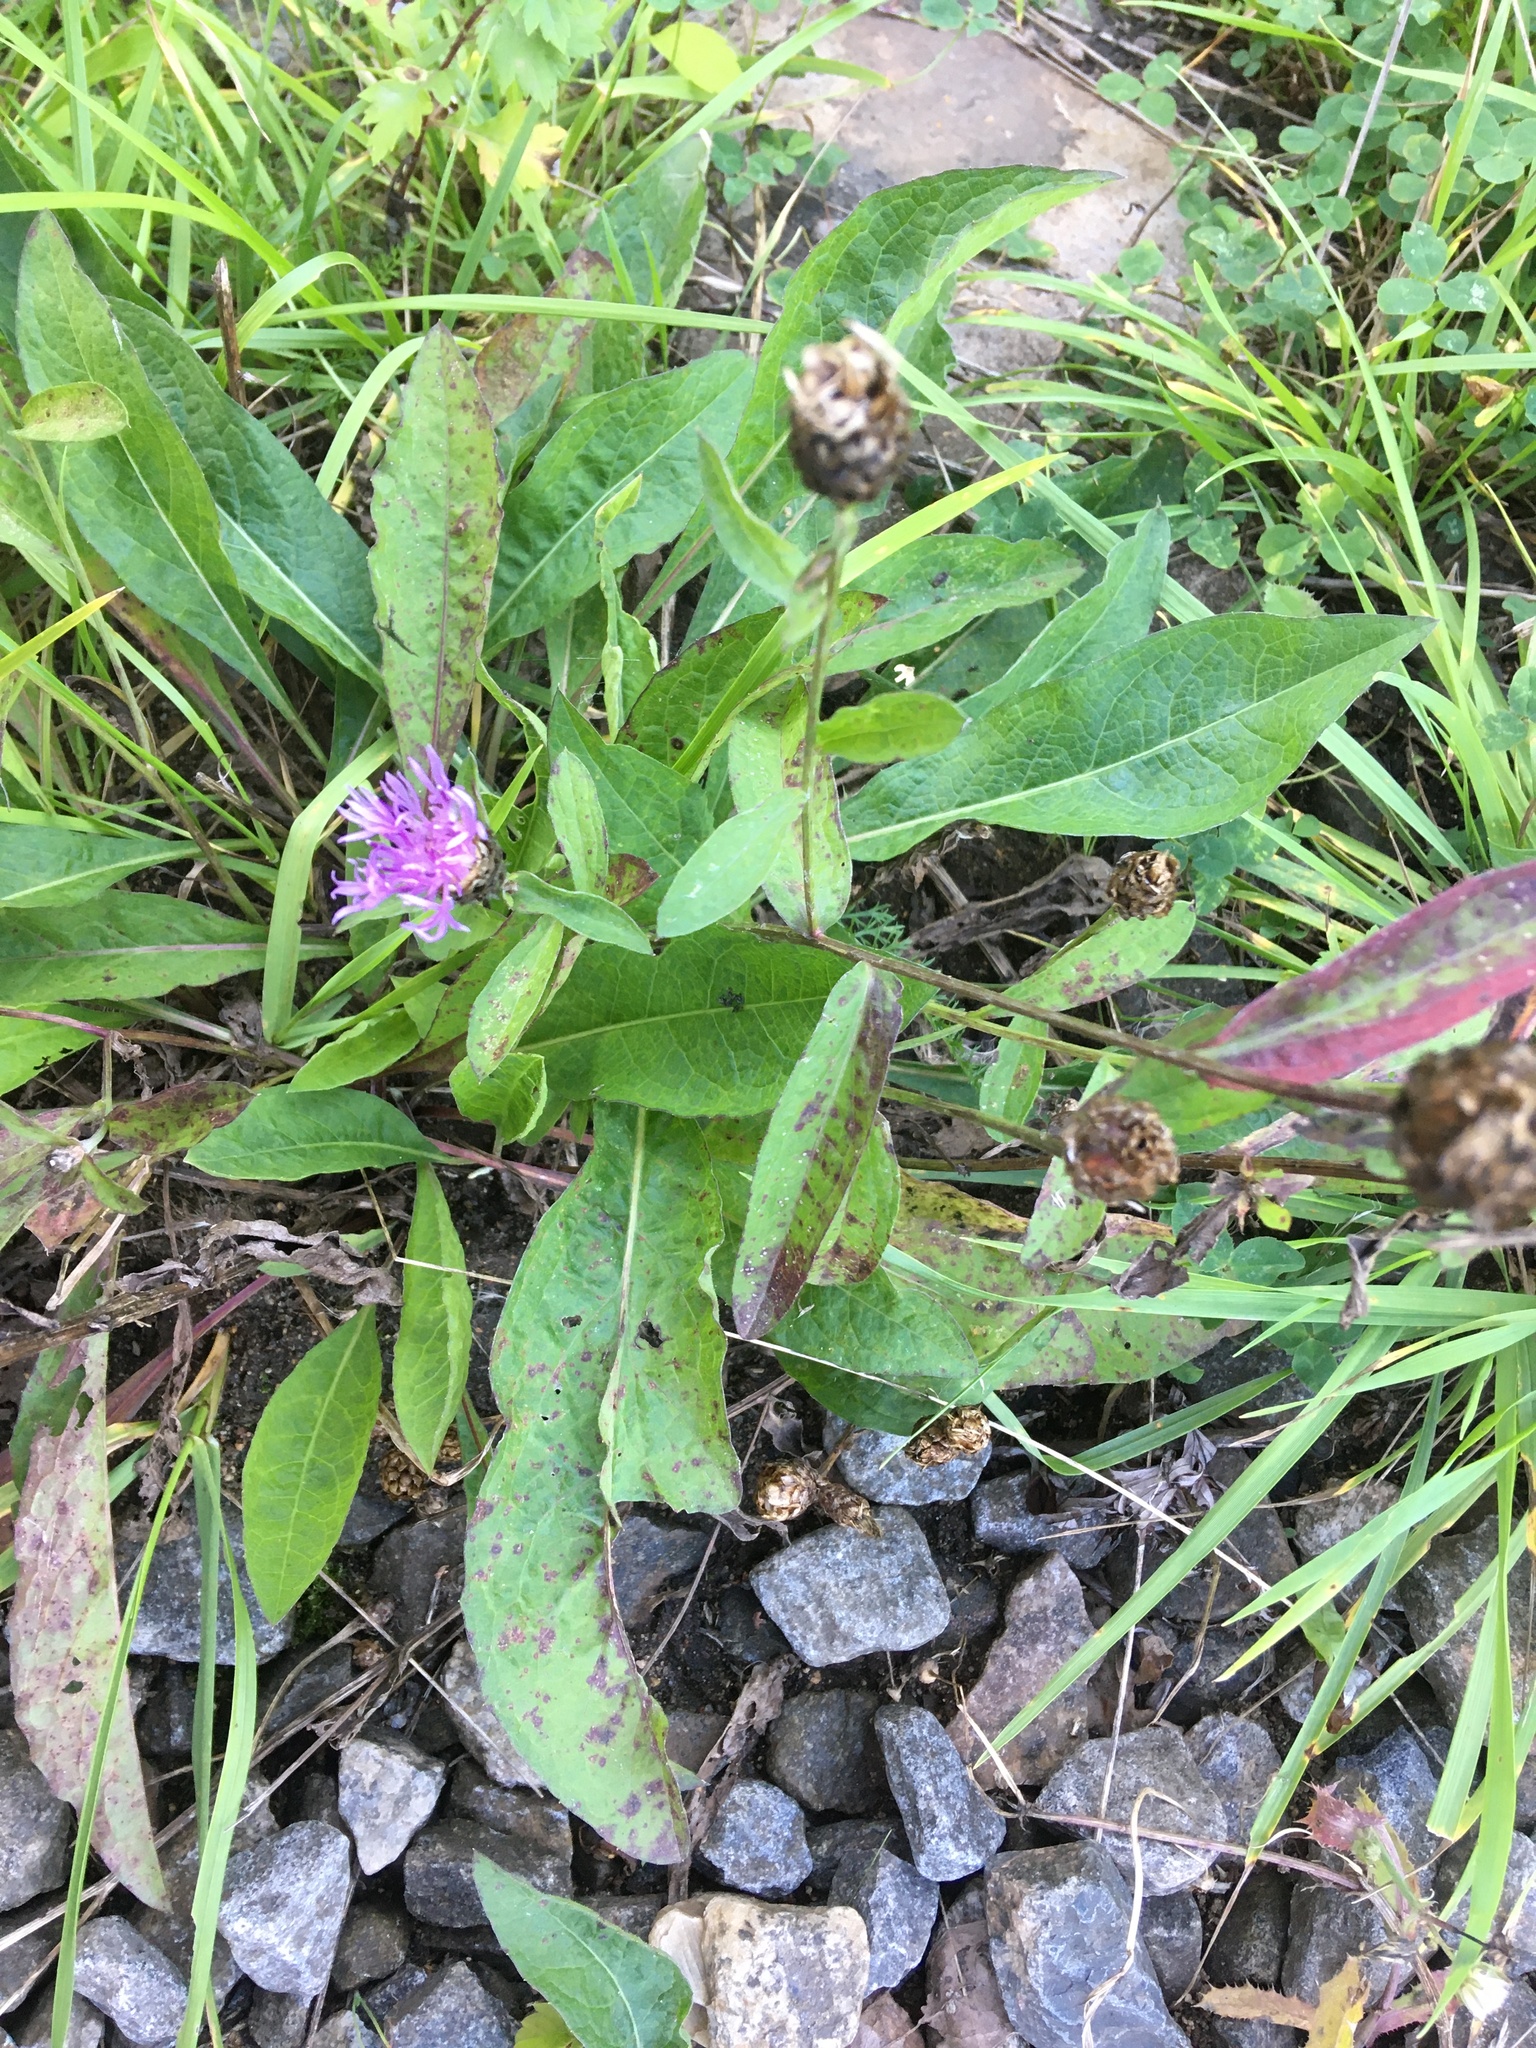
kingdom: Plantae
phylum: Tracheophyta
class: Magnoliopsida
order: Asterales
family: Asteraceae
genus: Centaurea
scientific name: Centaurea jacea
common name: Brown knapweed
